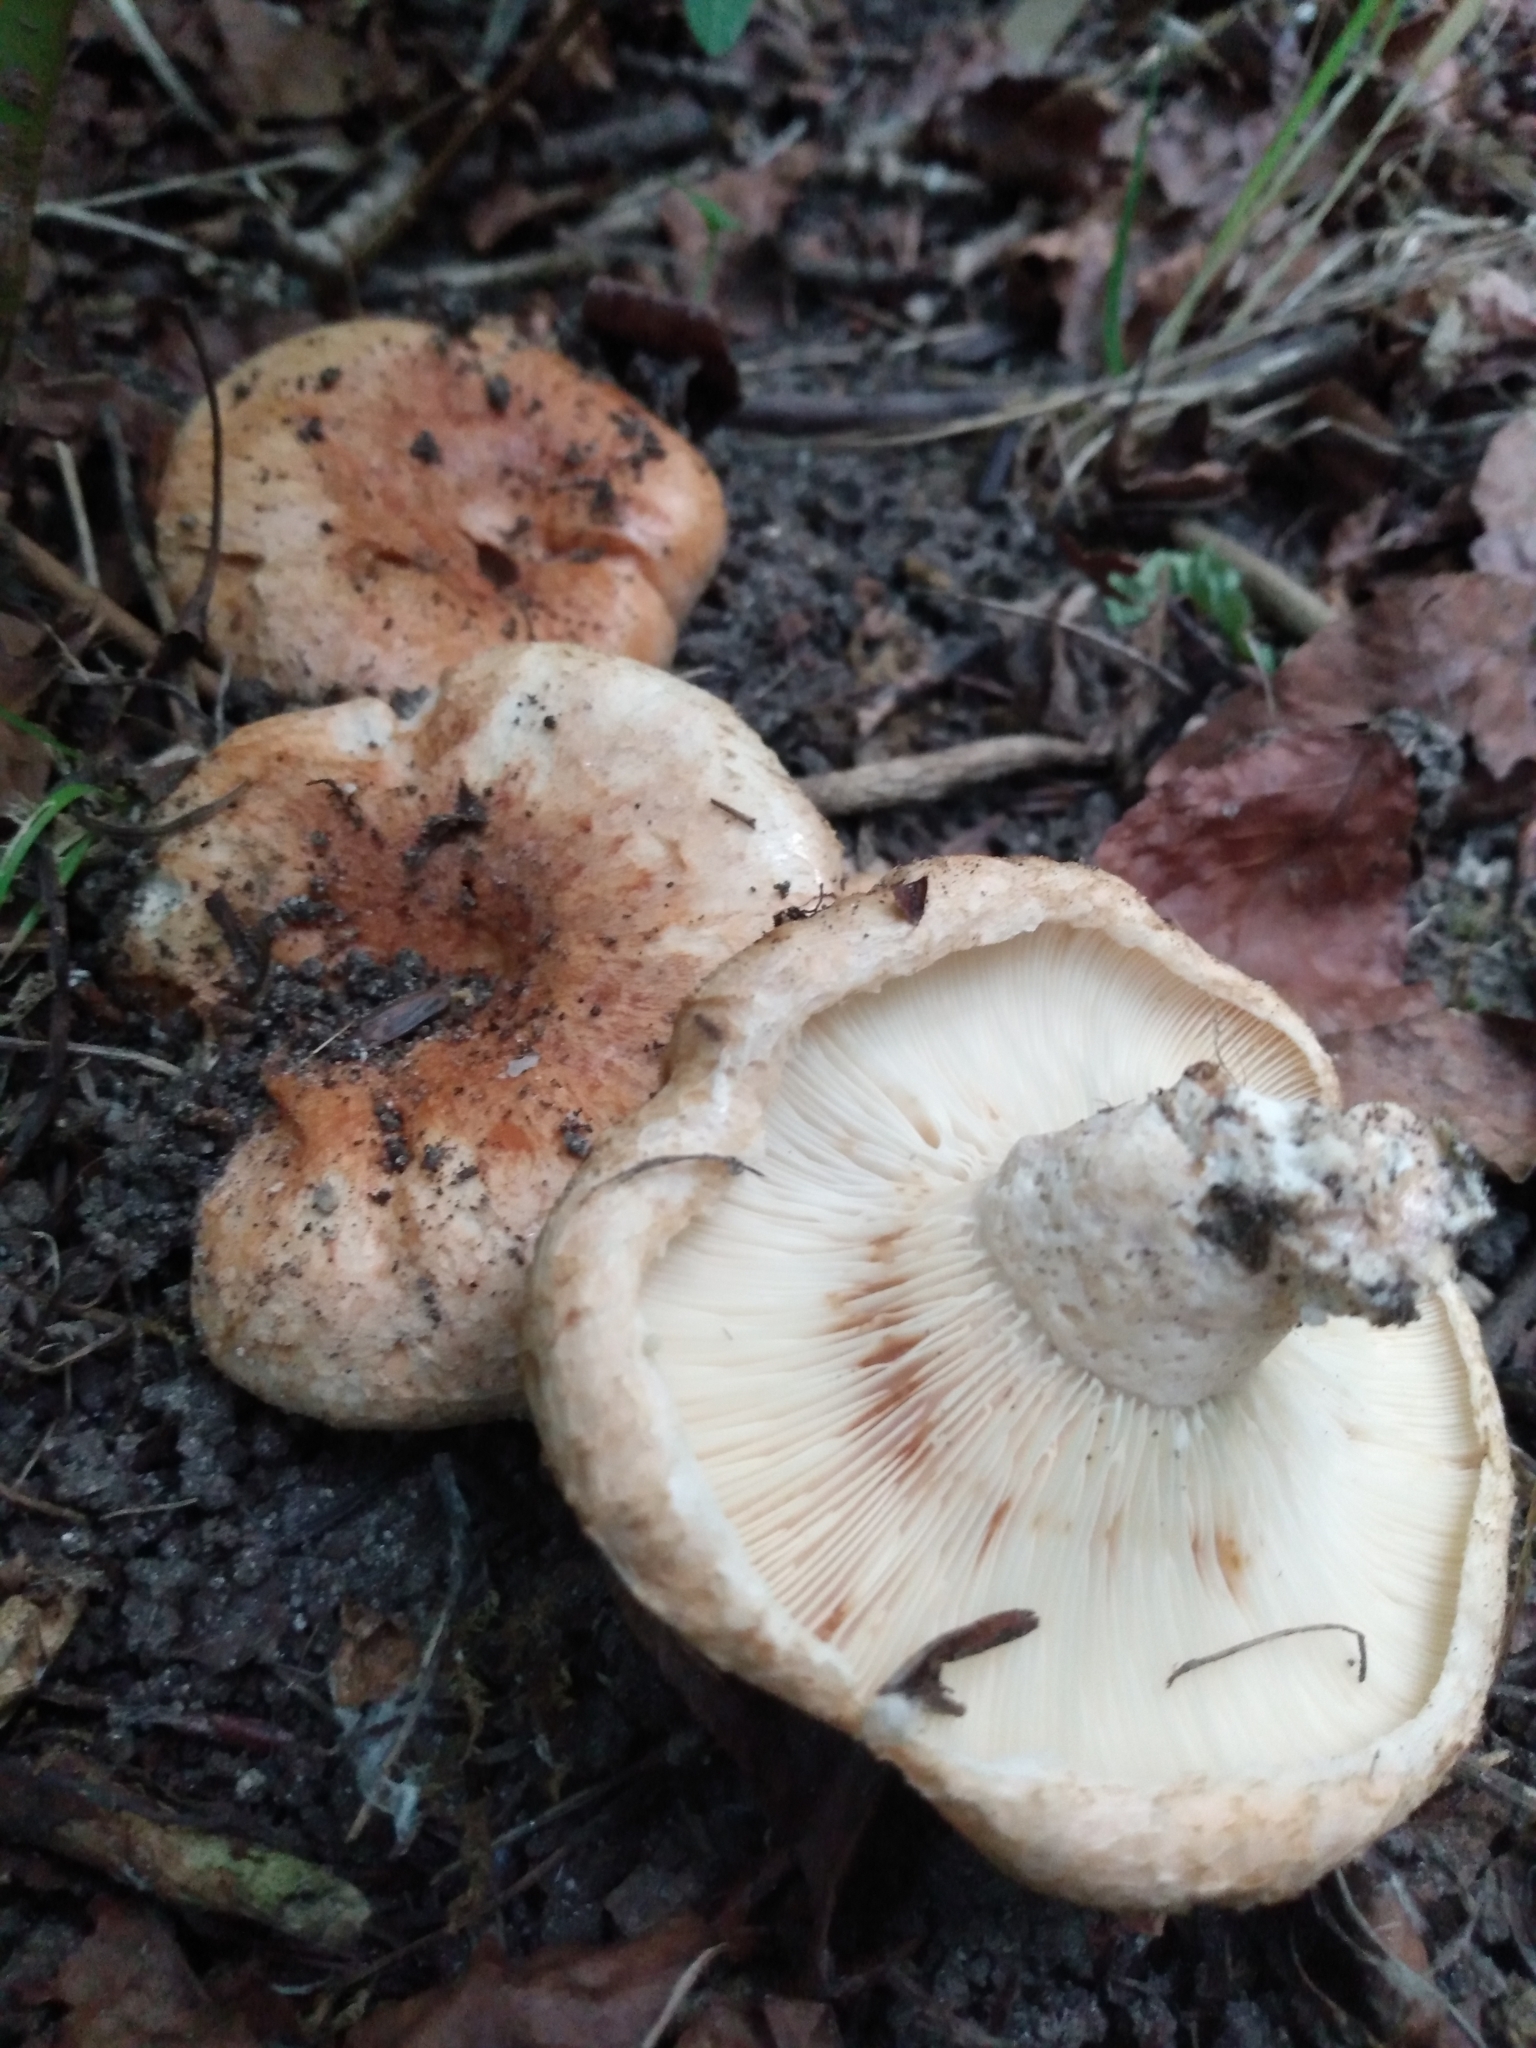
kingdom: Fungi
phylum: Basidiomycota
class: Agaricomycetes
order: Russulales
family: Russulaceae
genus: Lactarius
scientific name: Lactarius controversus
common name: Blushing milkcap
